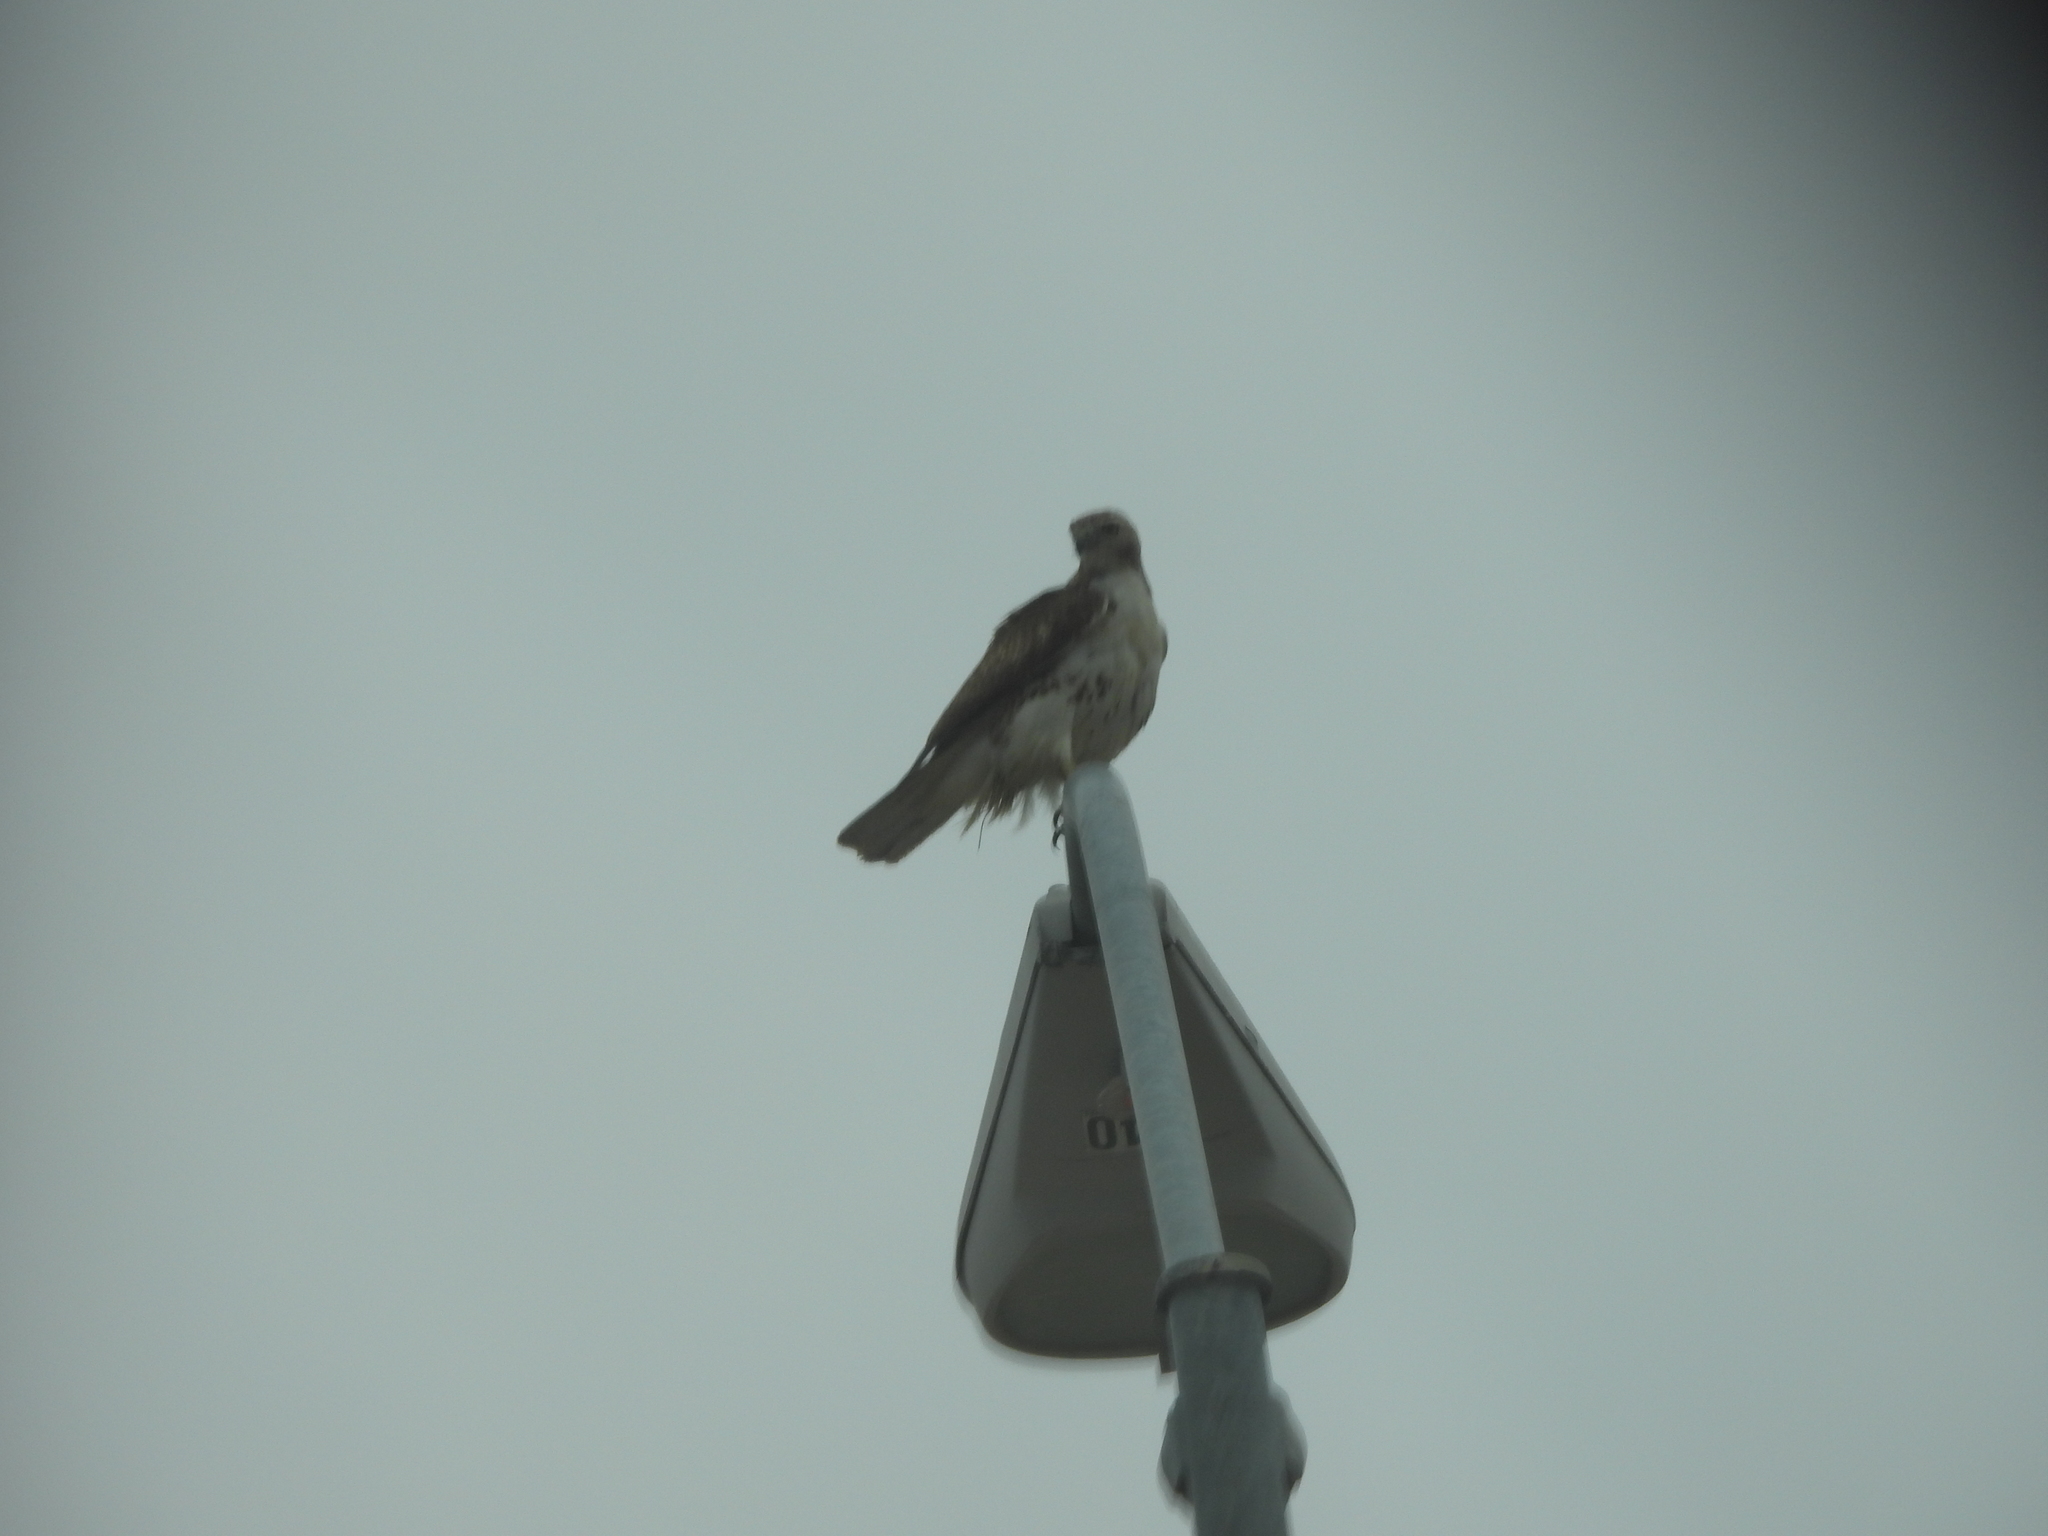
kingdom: Animalia
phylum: Chordata
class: Aves
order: Accipitriformes
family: Accipitridae
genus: Buteo
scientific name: Buteo jamaicensis
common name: Red-tailed hawk
